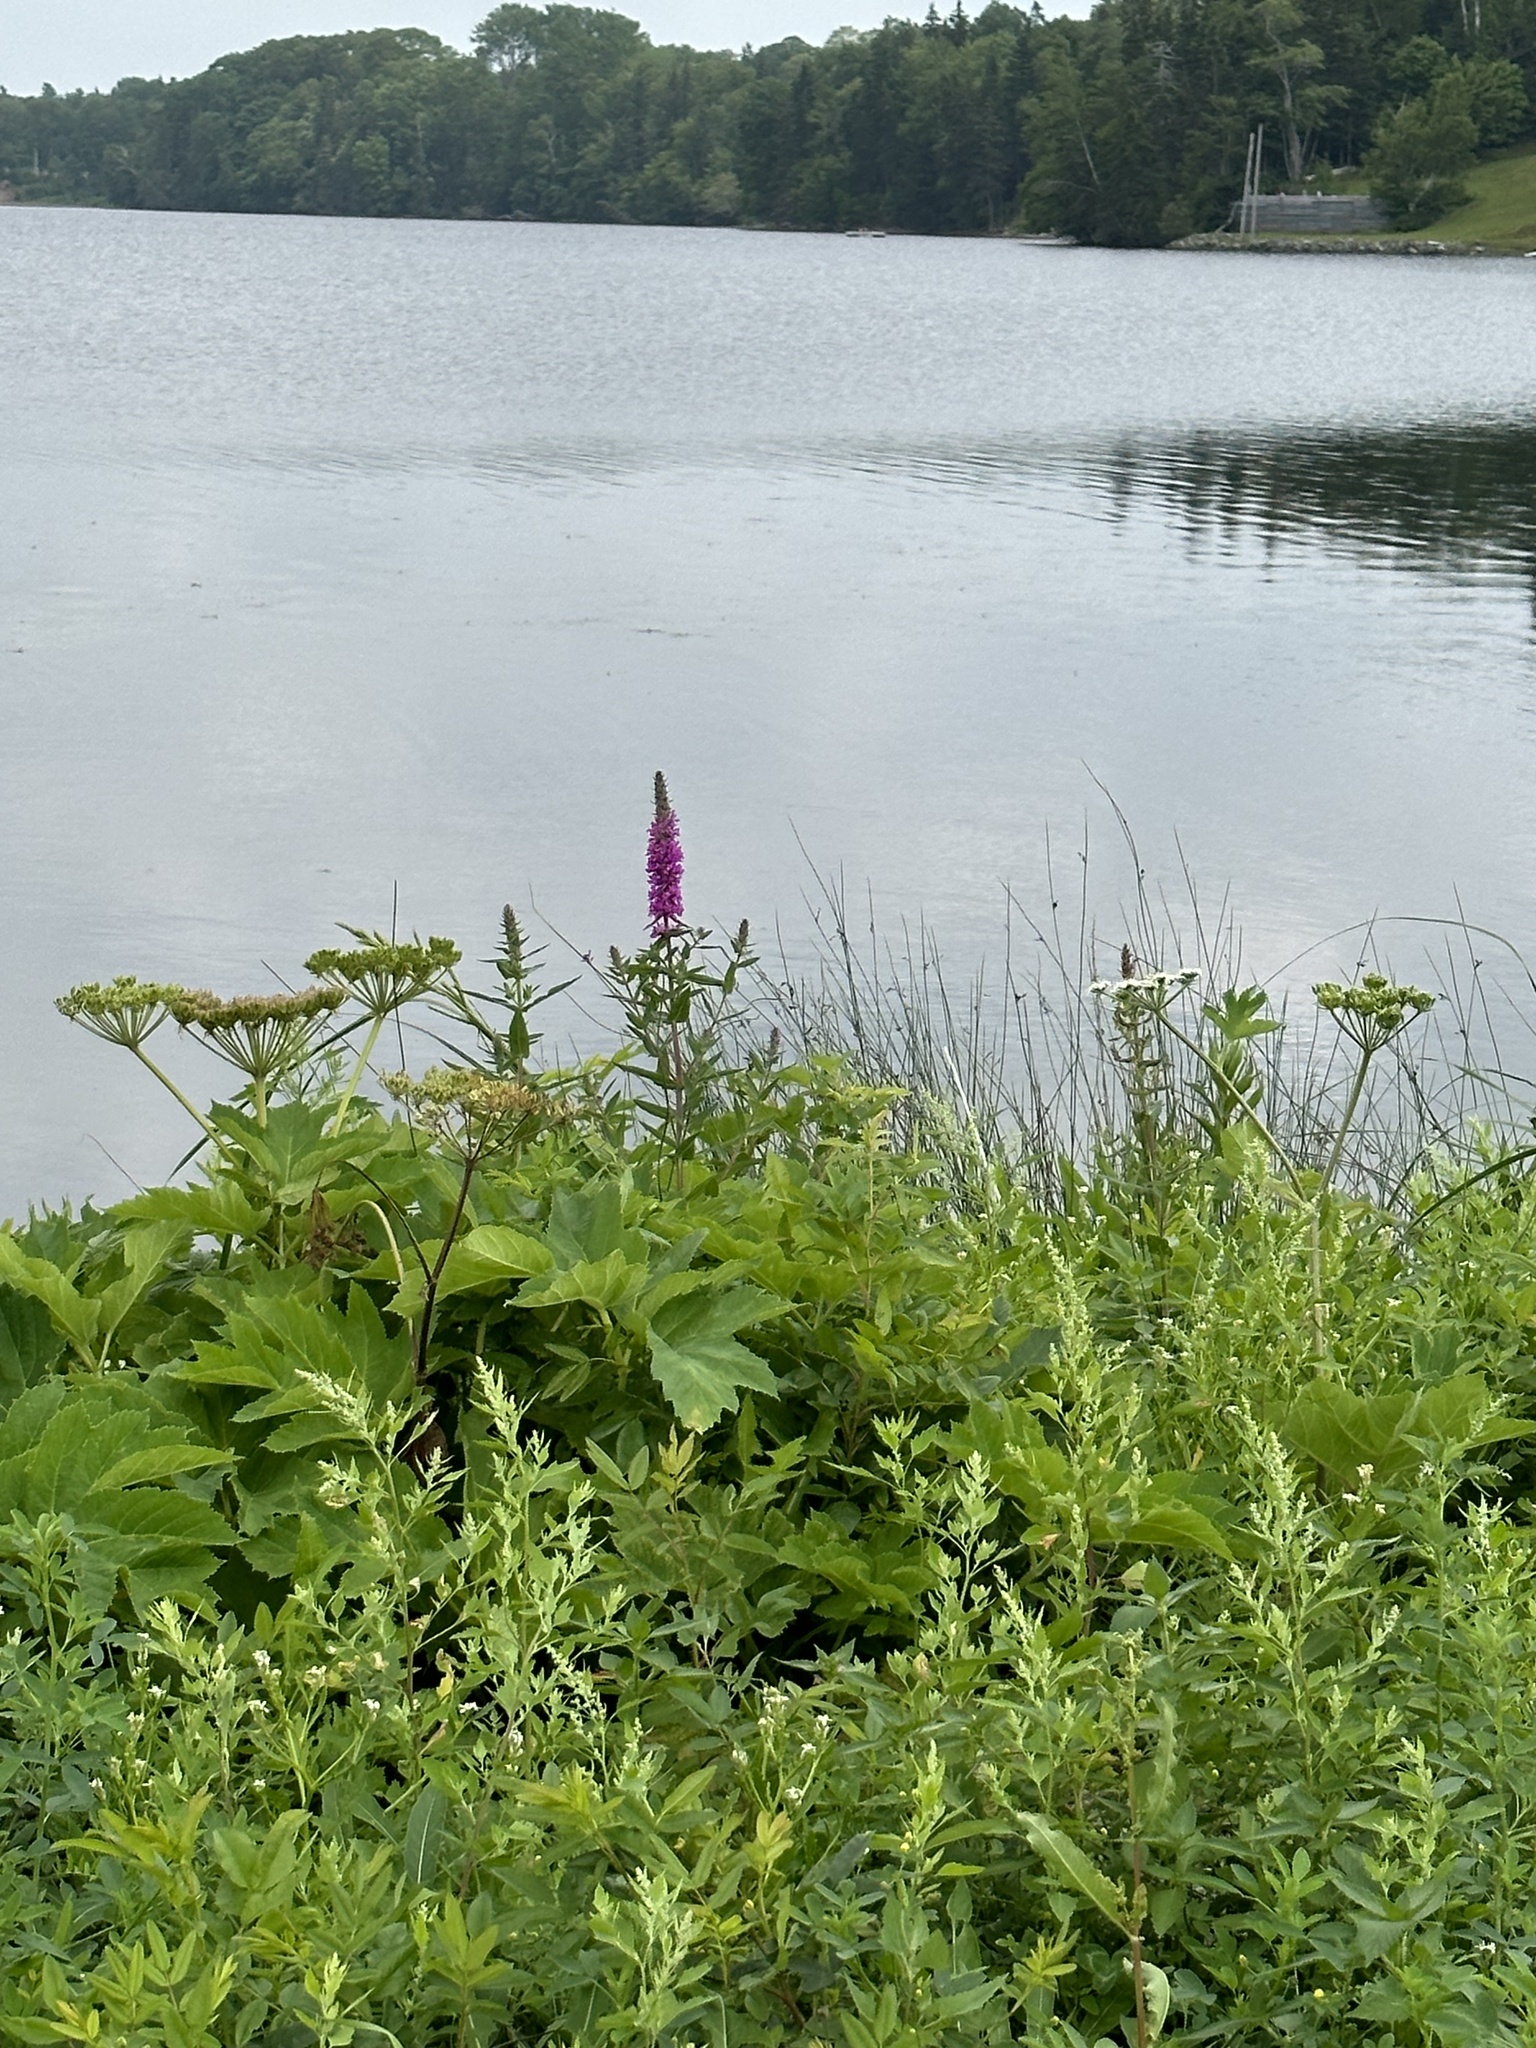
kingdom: Plantae
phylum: Tracheophyta
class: Magnoliopsida
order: Myrtales
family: Lythraceae
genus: Lythrum
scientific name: Lythrum salicaria
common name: Purple loosestrife
